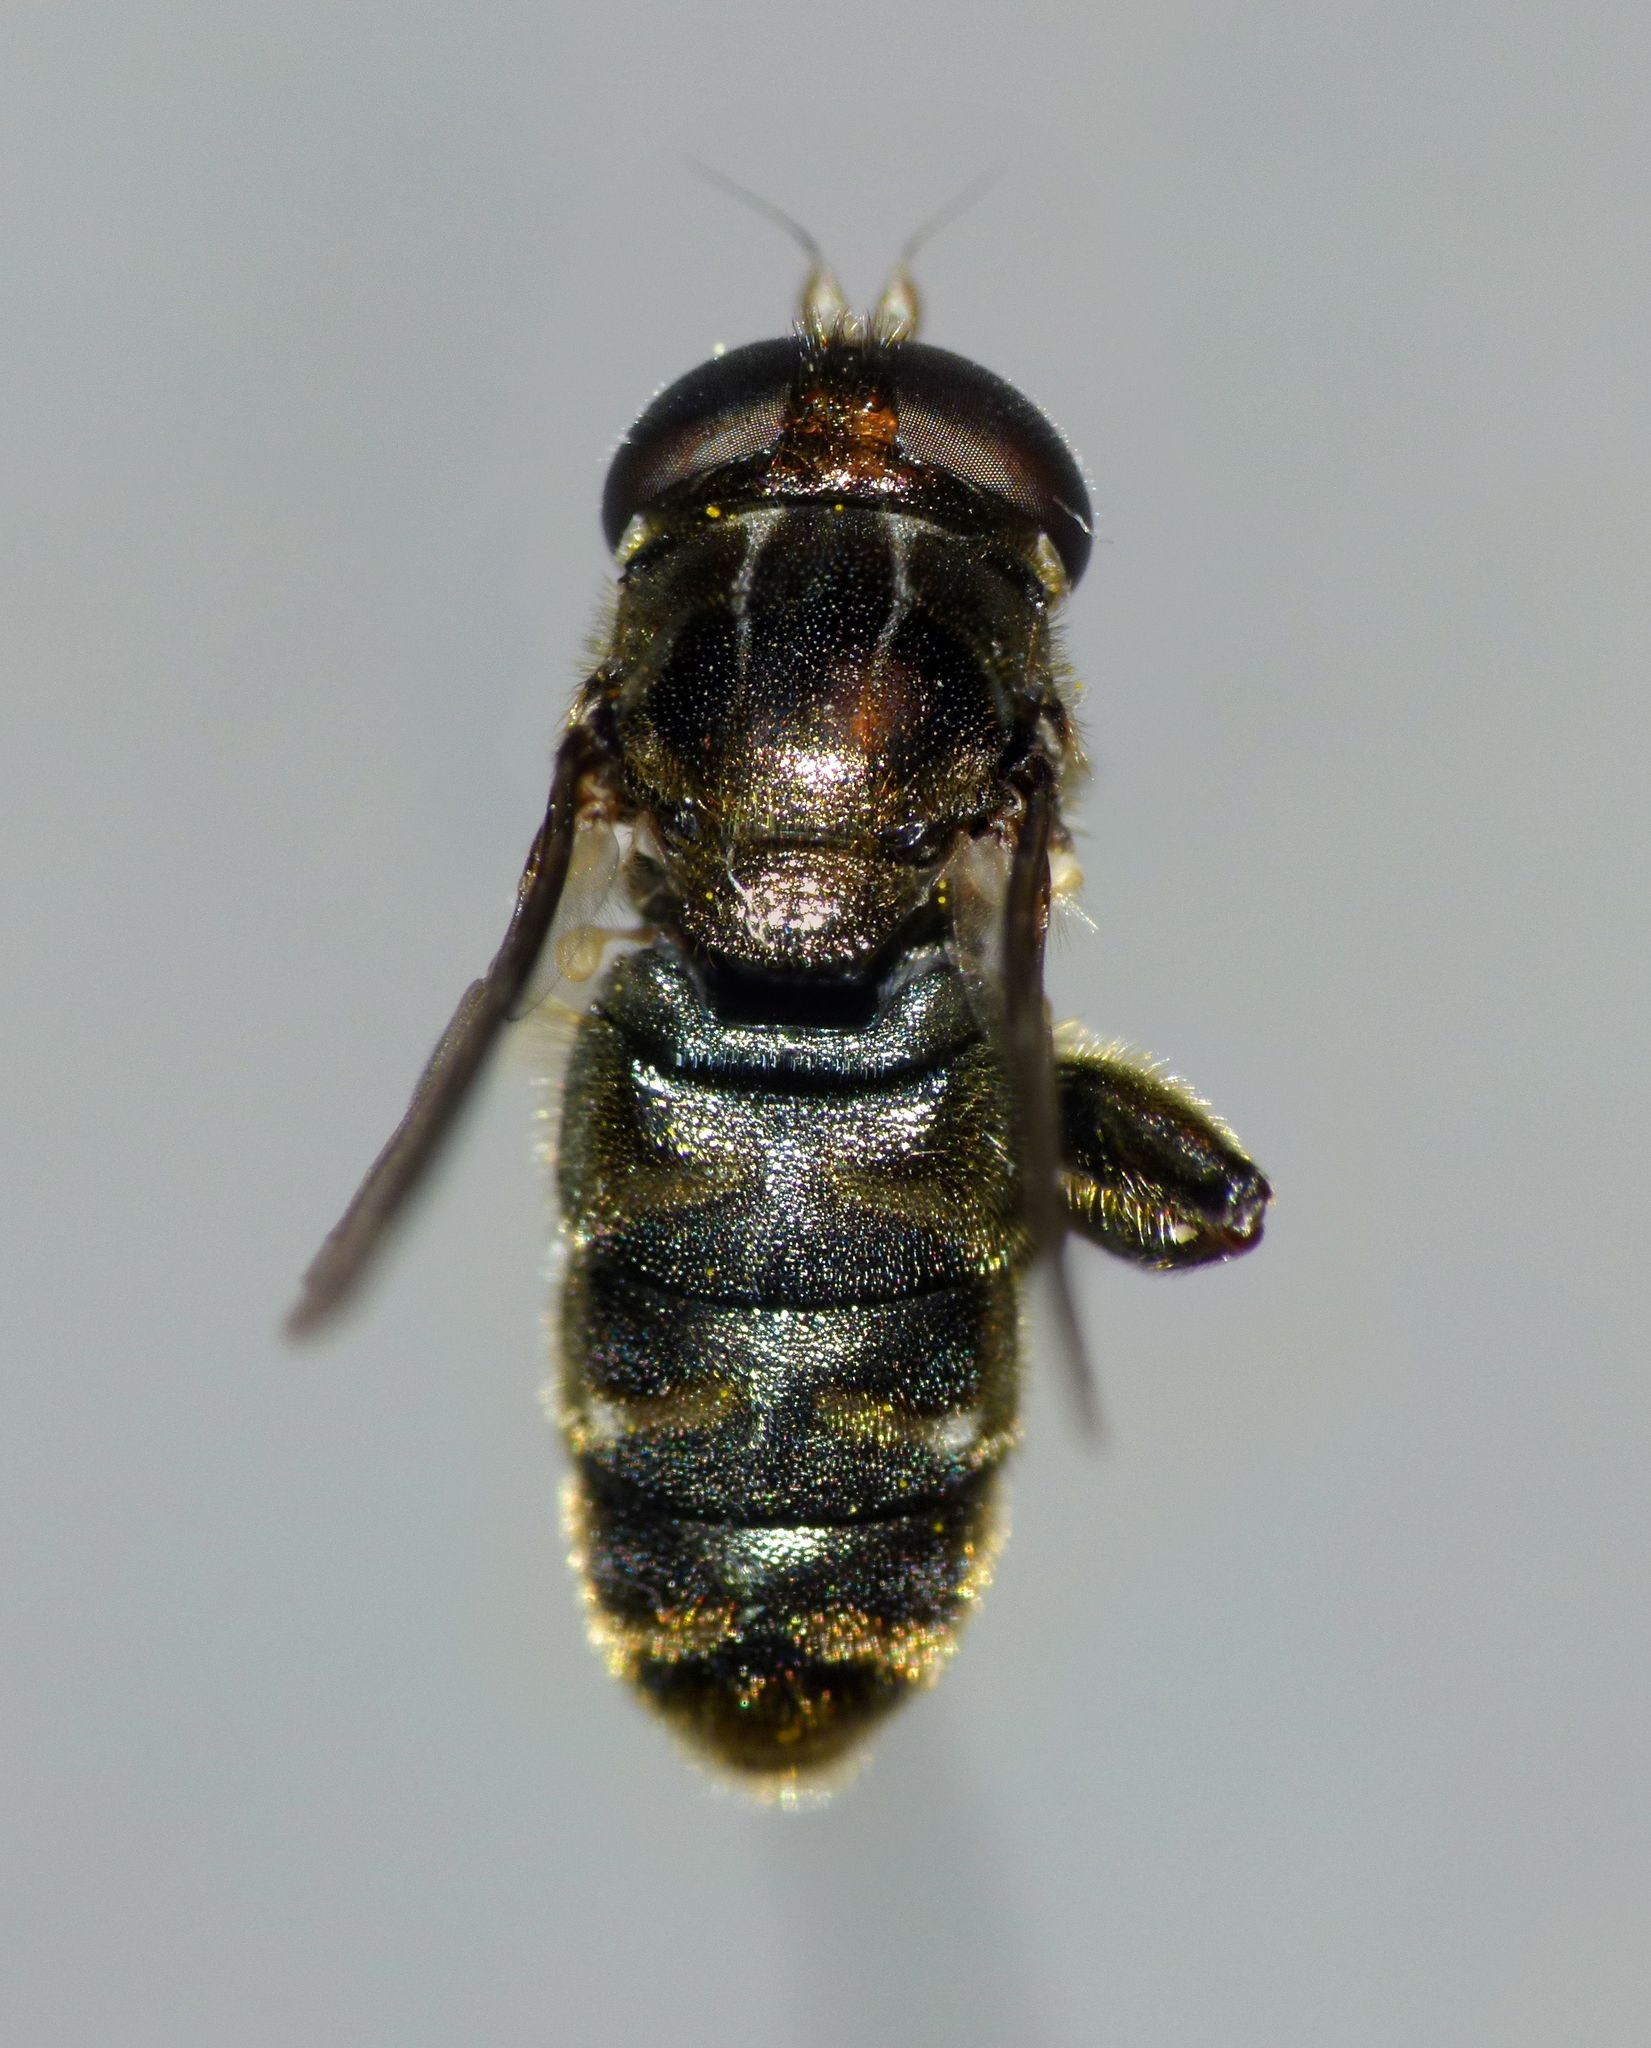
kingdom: Animalia
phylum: Arthropoda
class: Insecta
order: Diptera
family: Syrphidae
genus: Eumerus
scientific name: Eumerus
